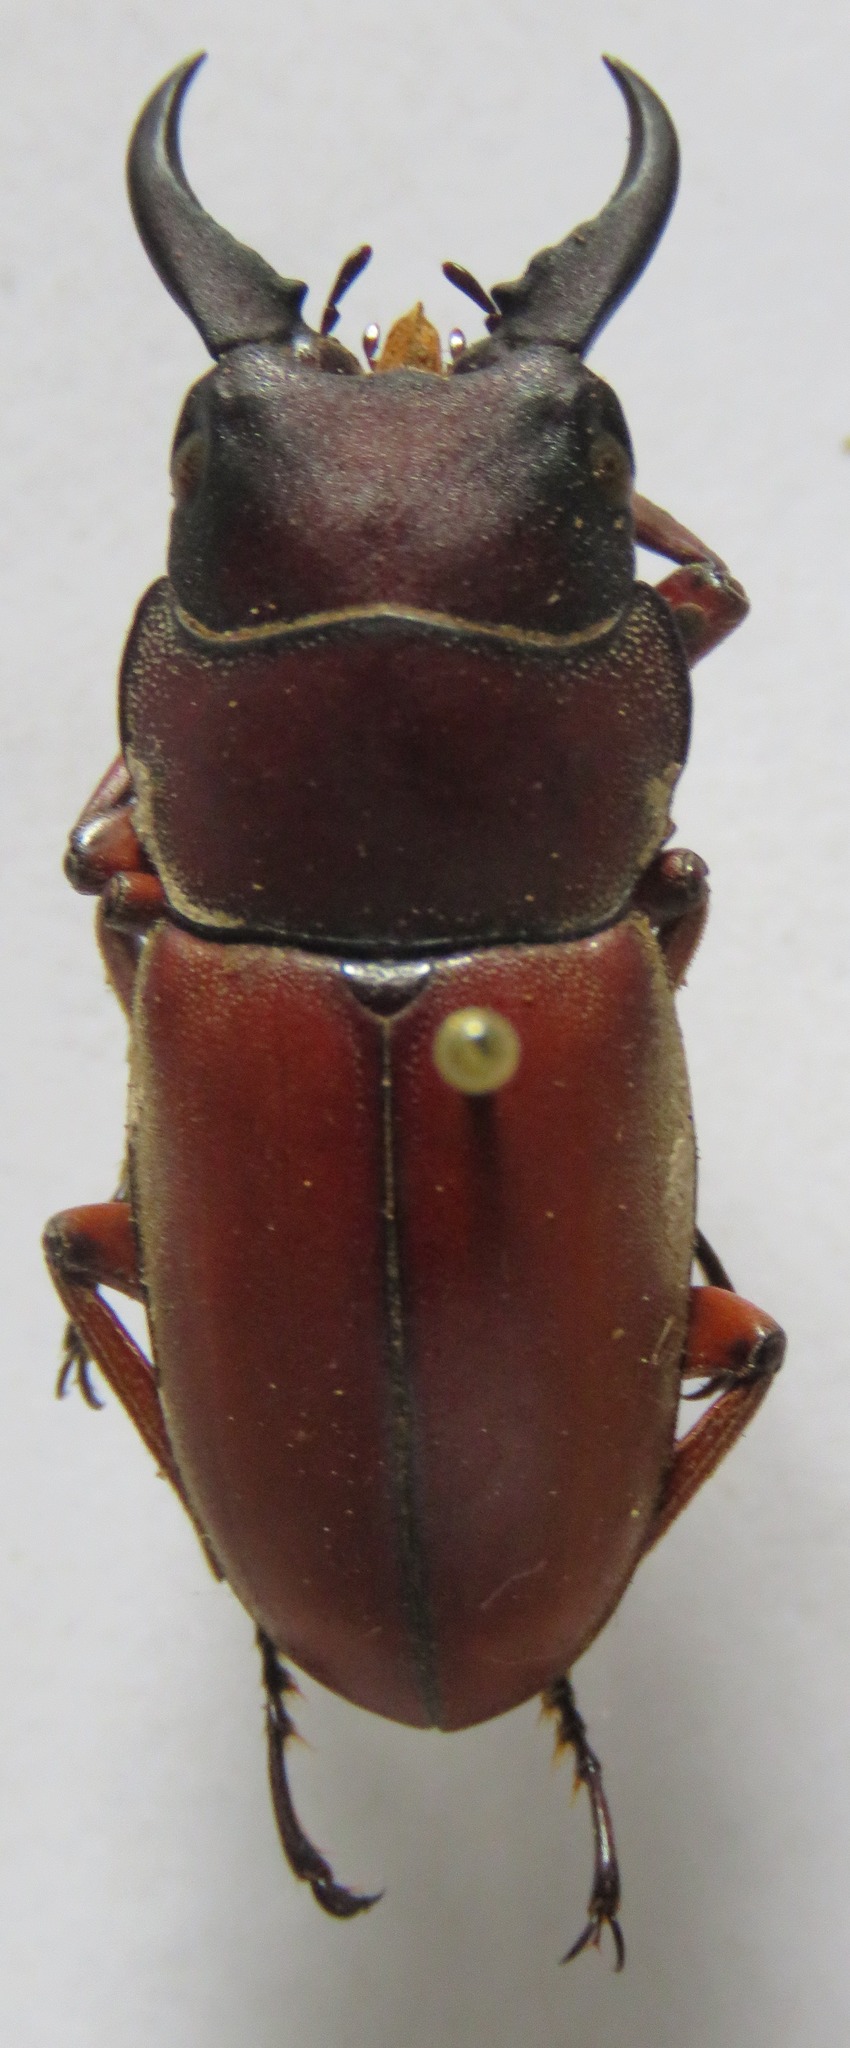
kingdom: Animalia
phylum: Arthropoda
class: Insecta
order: Coleoptera
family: Lucanidae
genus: Prosopocoilus
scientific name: Prosopocoilus romeoi
